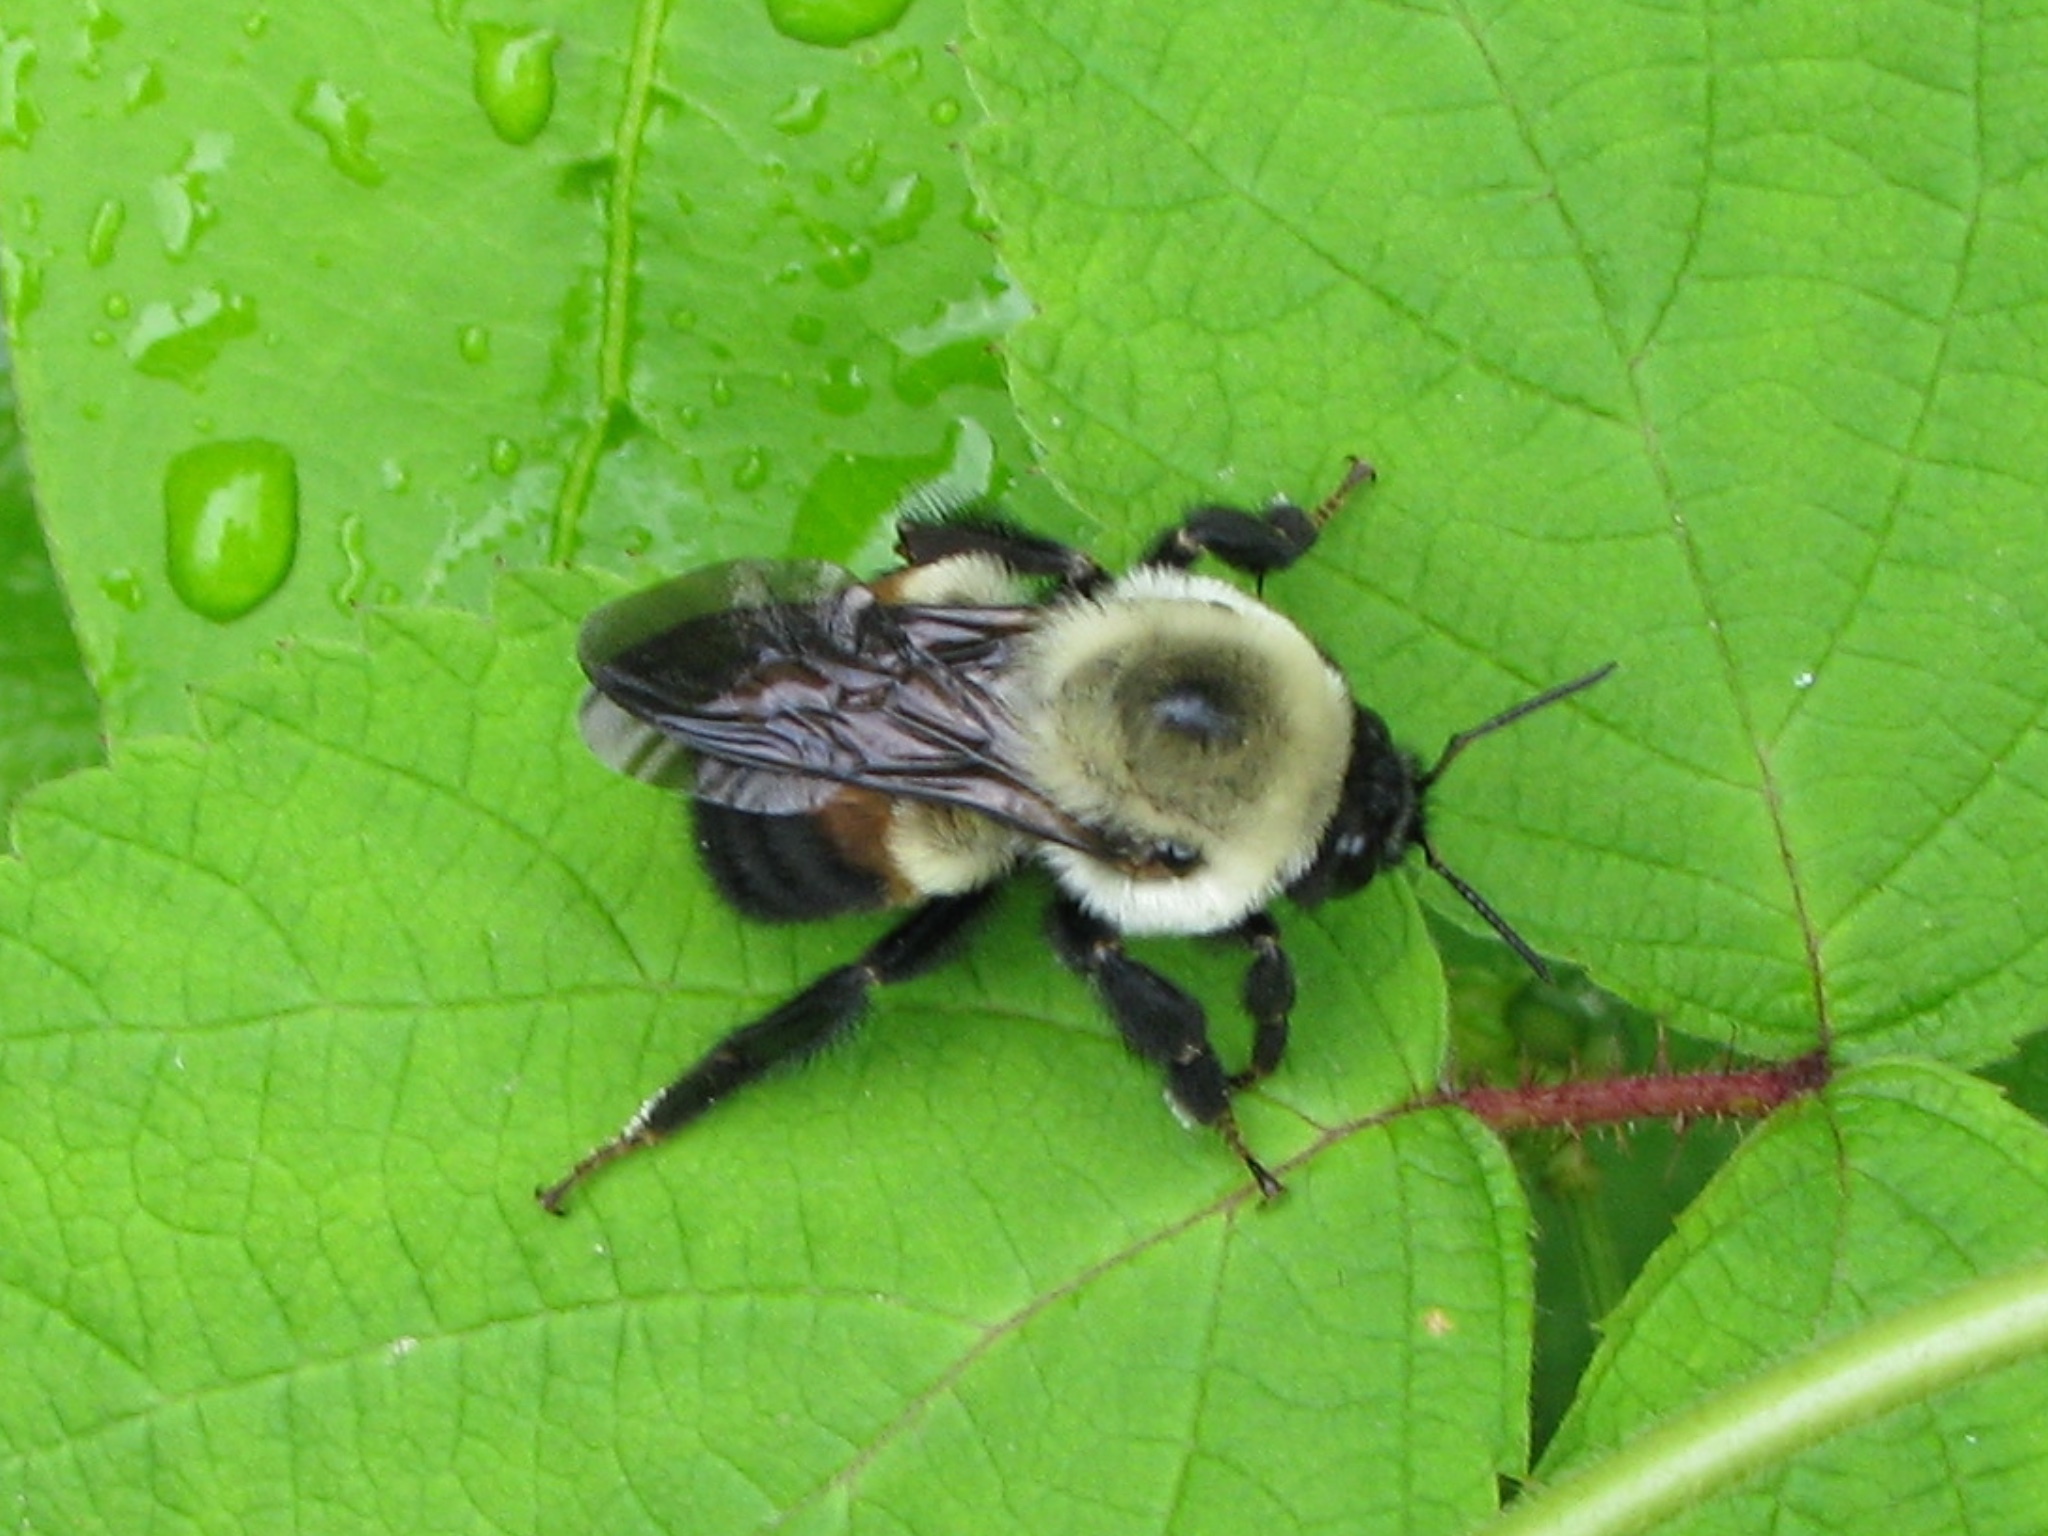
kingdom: Animalia
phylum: Arthropoda
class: Insecta
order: Hymenoptera
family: Apidae
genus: Bombus
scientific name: Bombus griseocollis
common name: Brown-belted bumble bee
